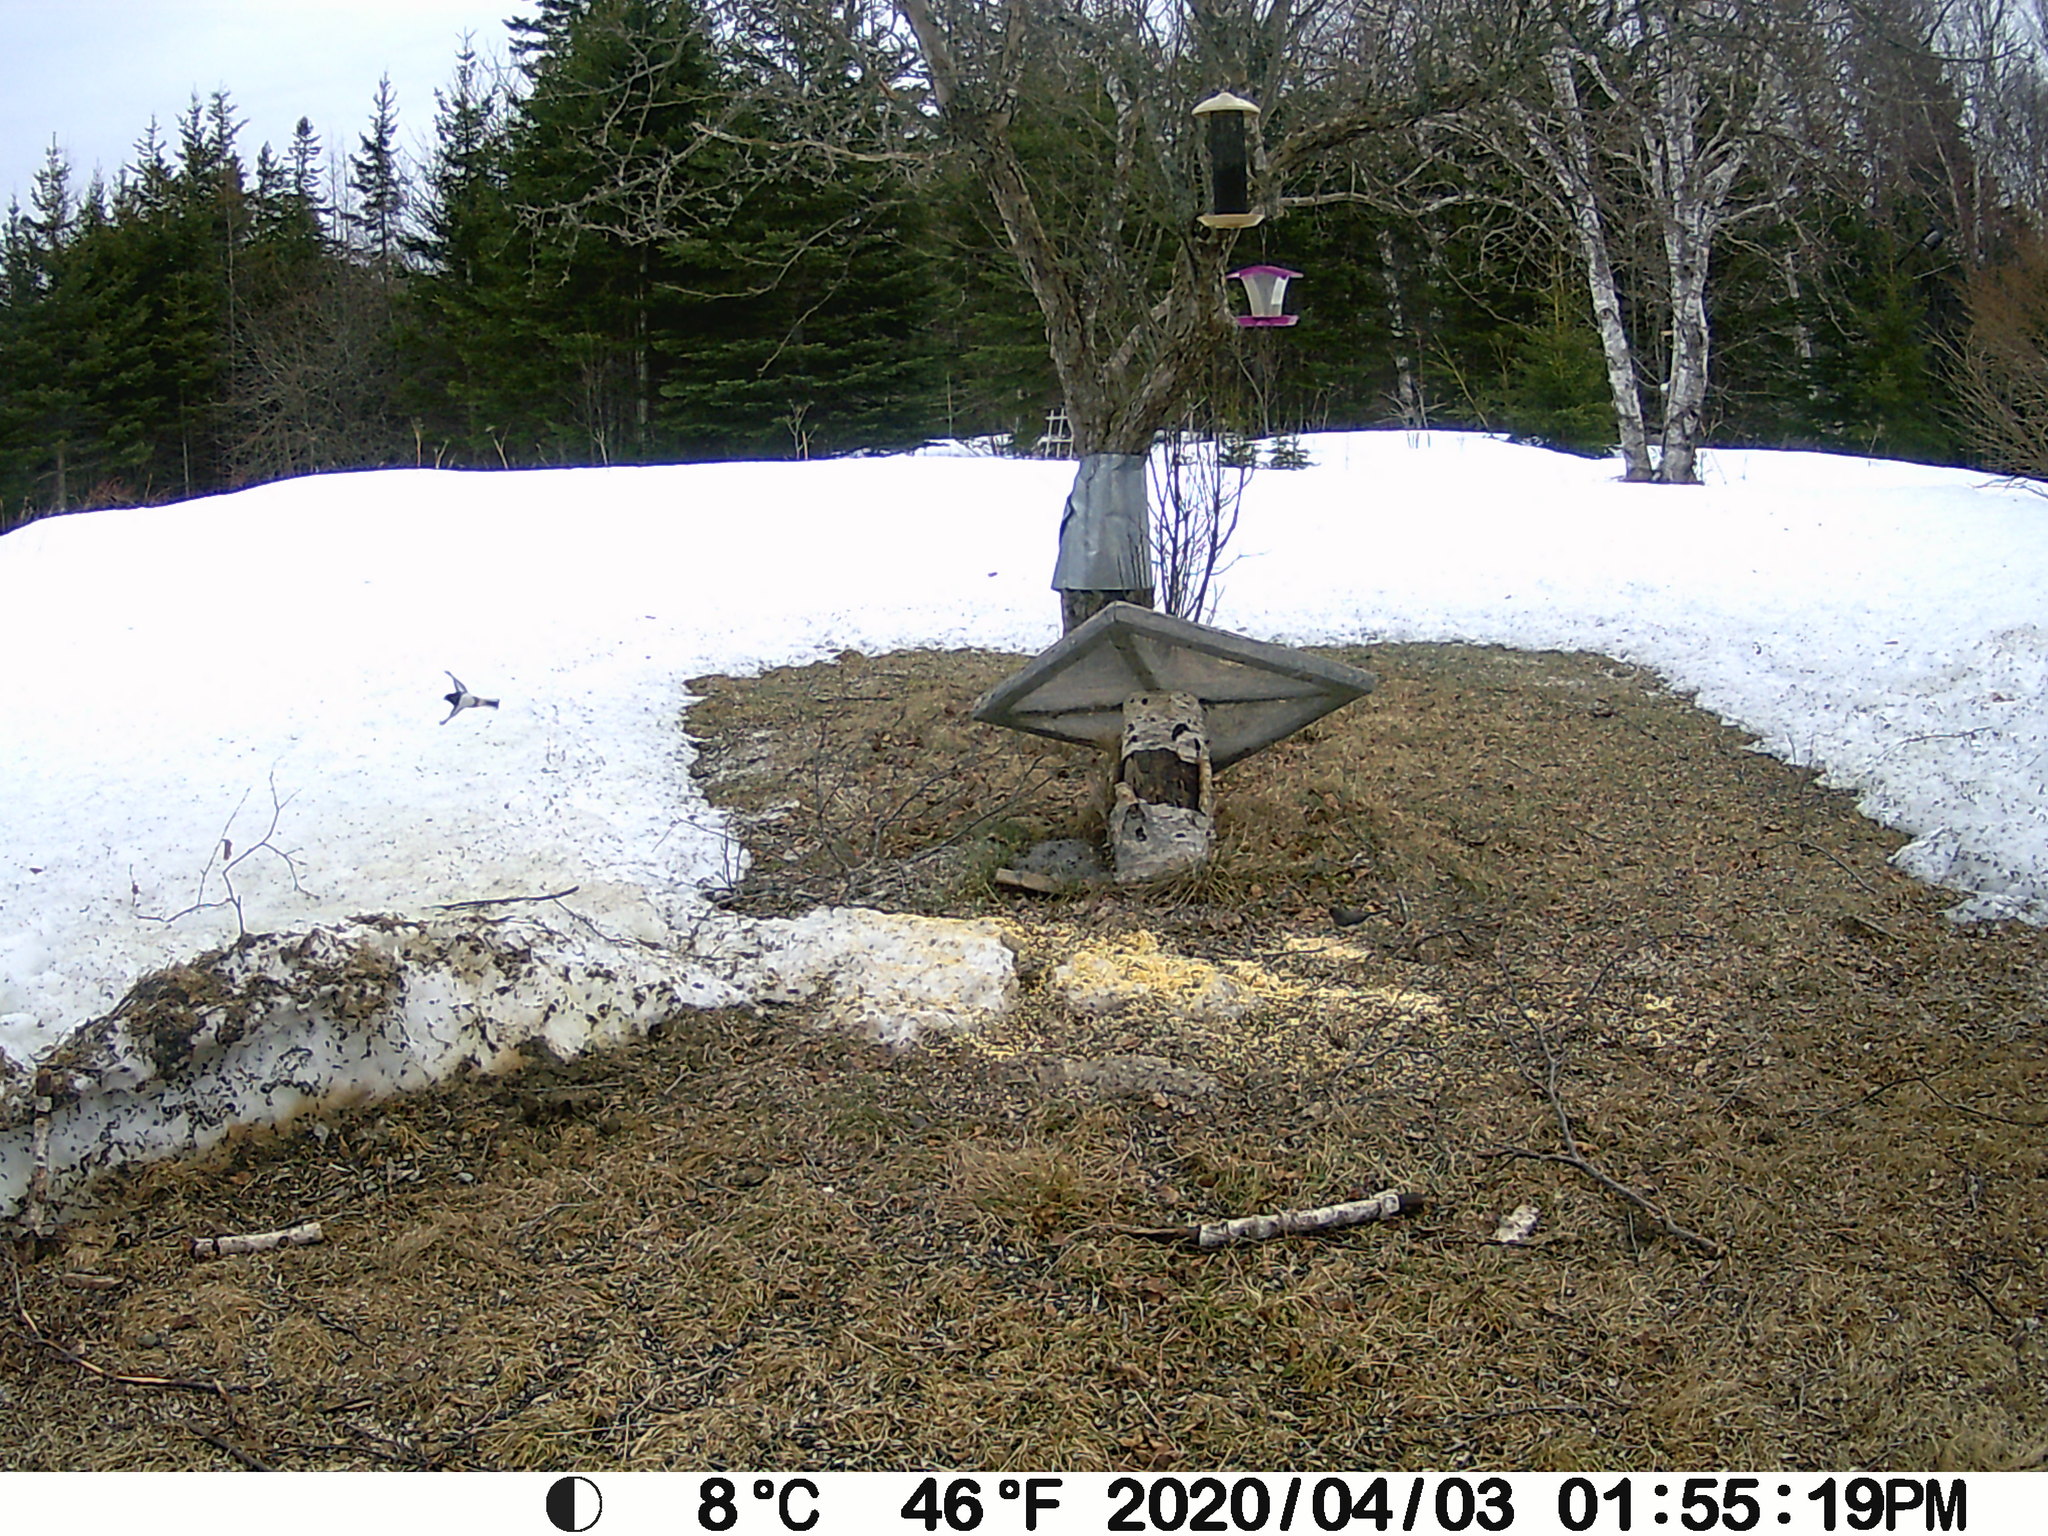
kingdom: Animalia
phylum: Chordata
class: Aves
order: Passeriformes
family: Passerellidae
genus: Junco
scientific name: Junco hyemalis
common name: Dark-eyed junco
